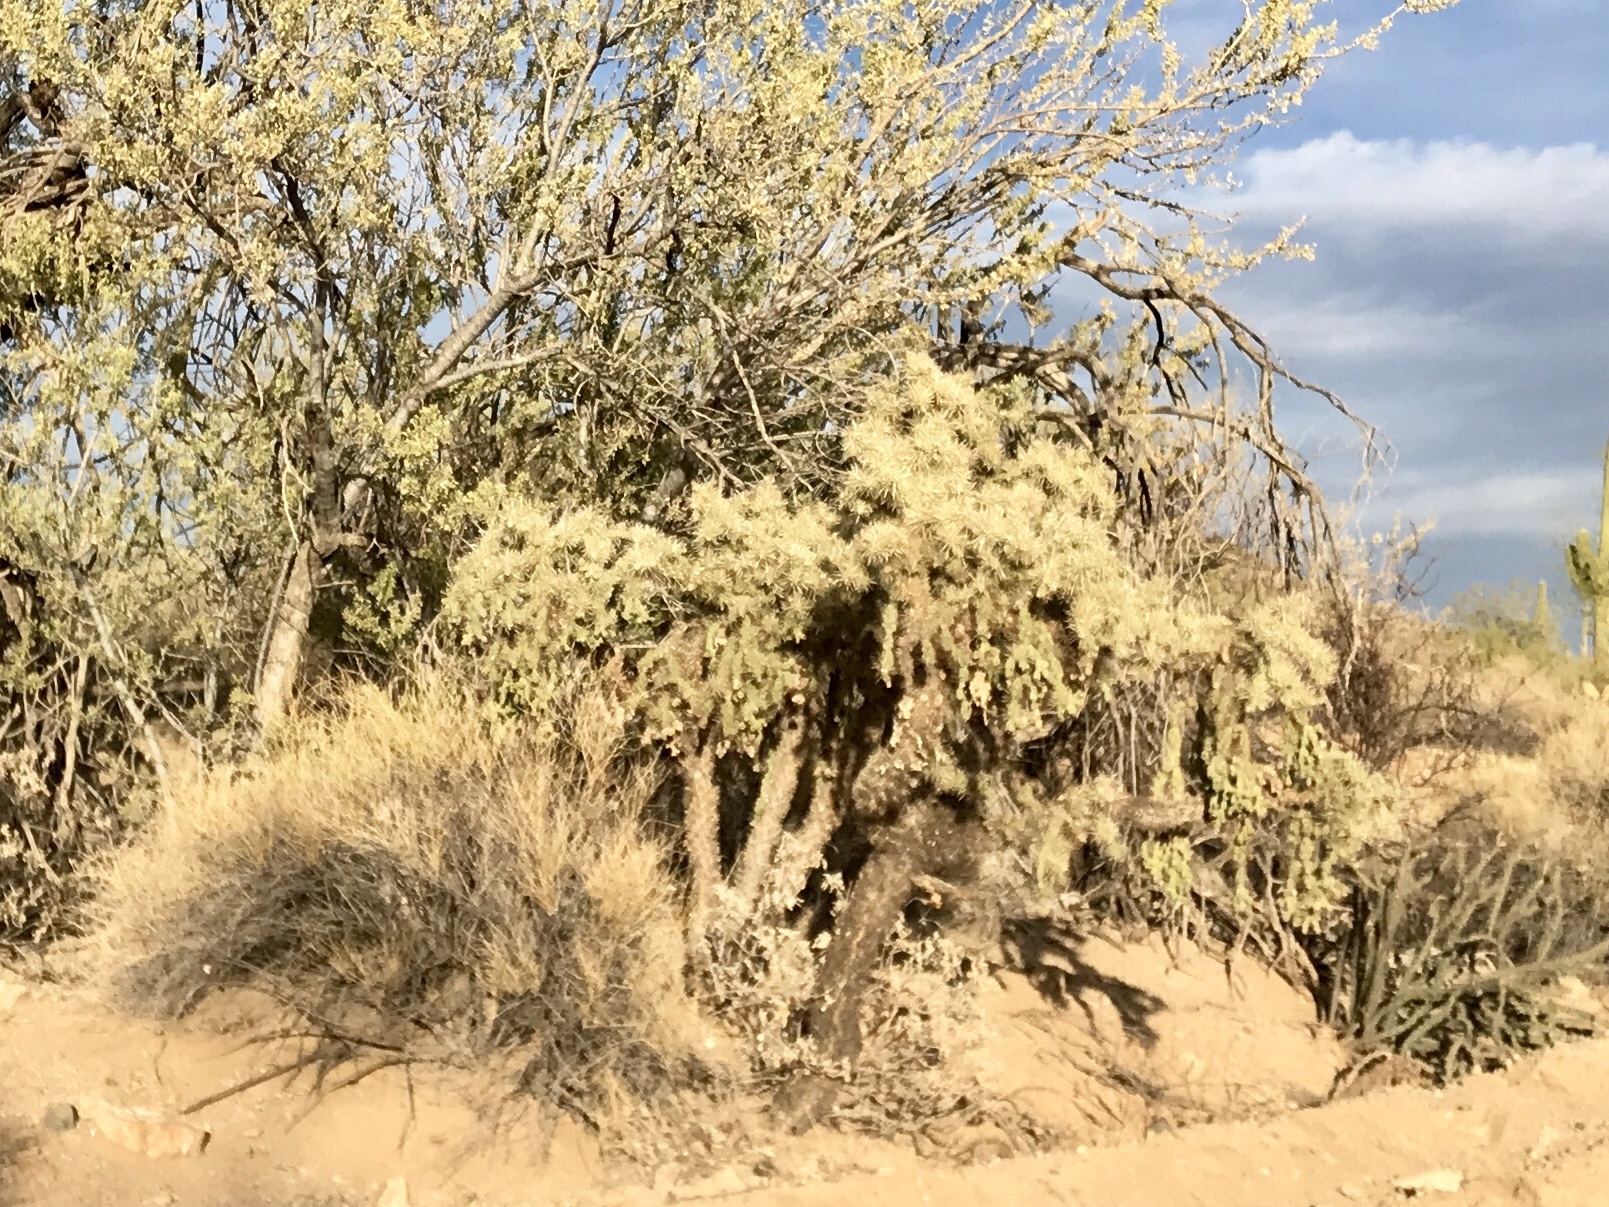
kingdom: Plantae
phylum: Tracheophyta
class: Magnoliopsida
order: Caryophyllales
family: Cactaceae
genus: Cylindropuntia
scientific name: Cylindropuntia fulgida
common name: Jumping cholla
